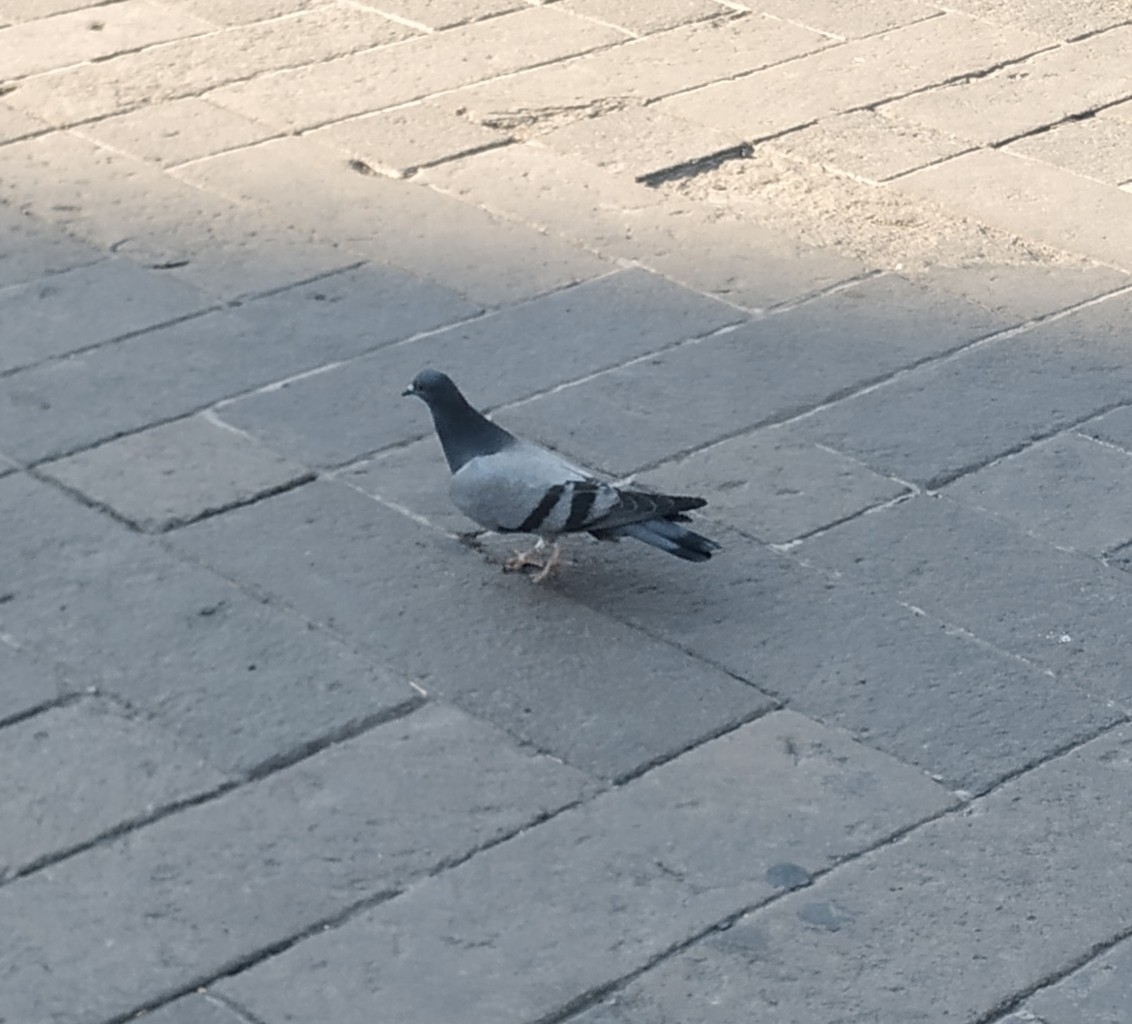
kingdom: Animalia
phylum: Chordata
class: Aves
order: Columbiformes
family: Columbidae
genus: Columba
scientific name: Columba livia
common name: Rock pigeon
